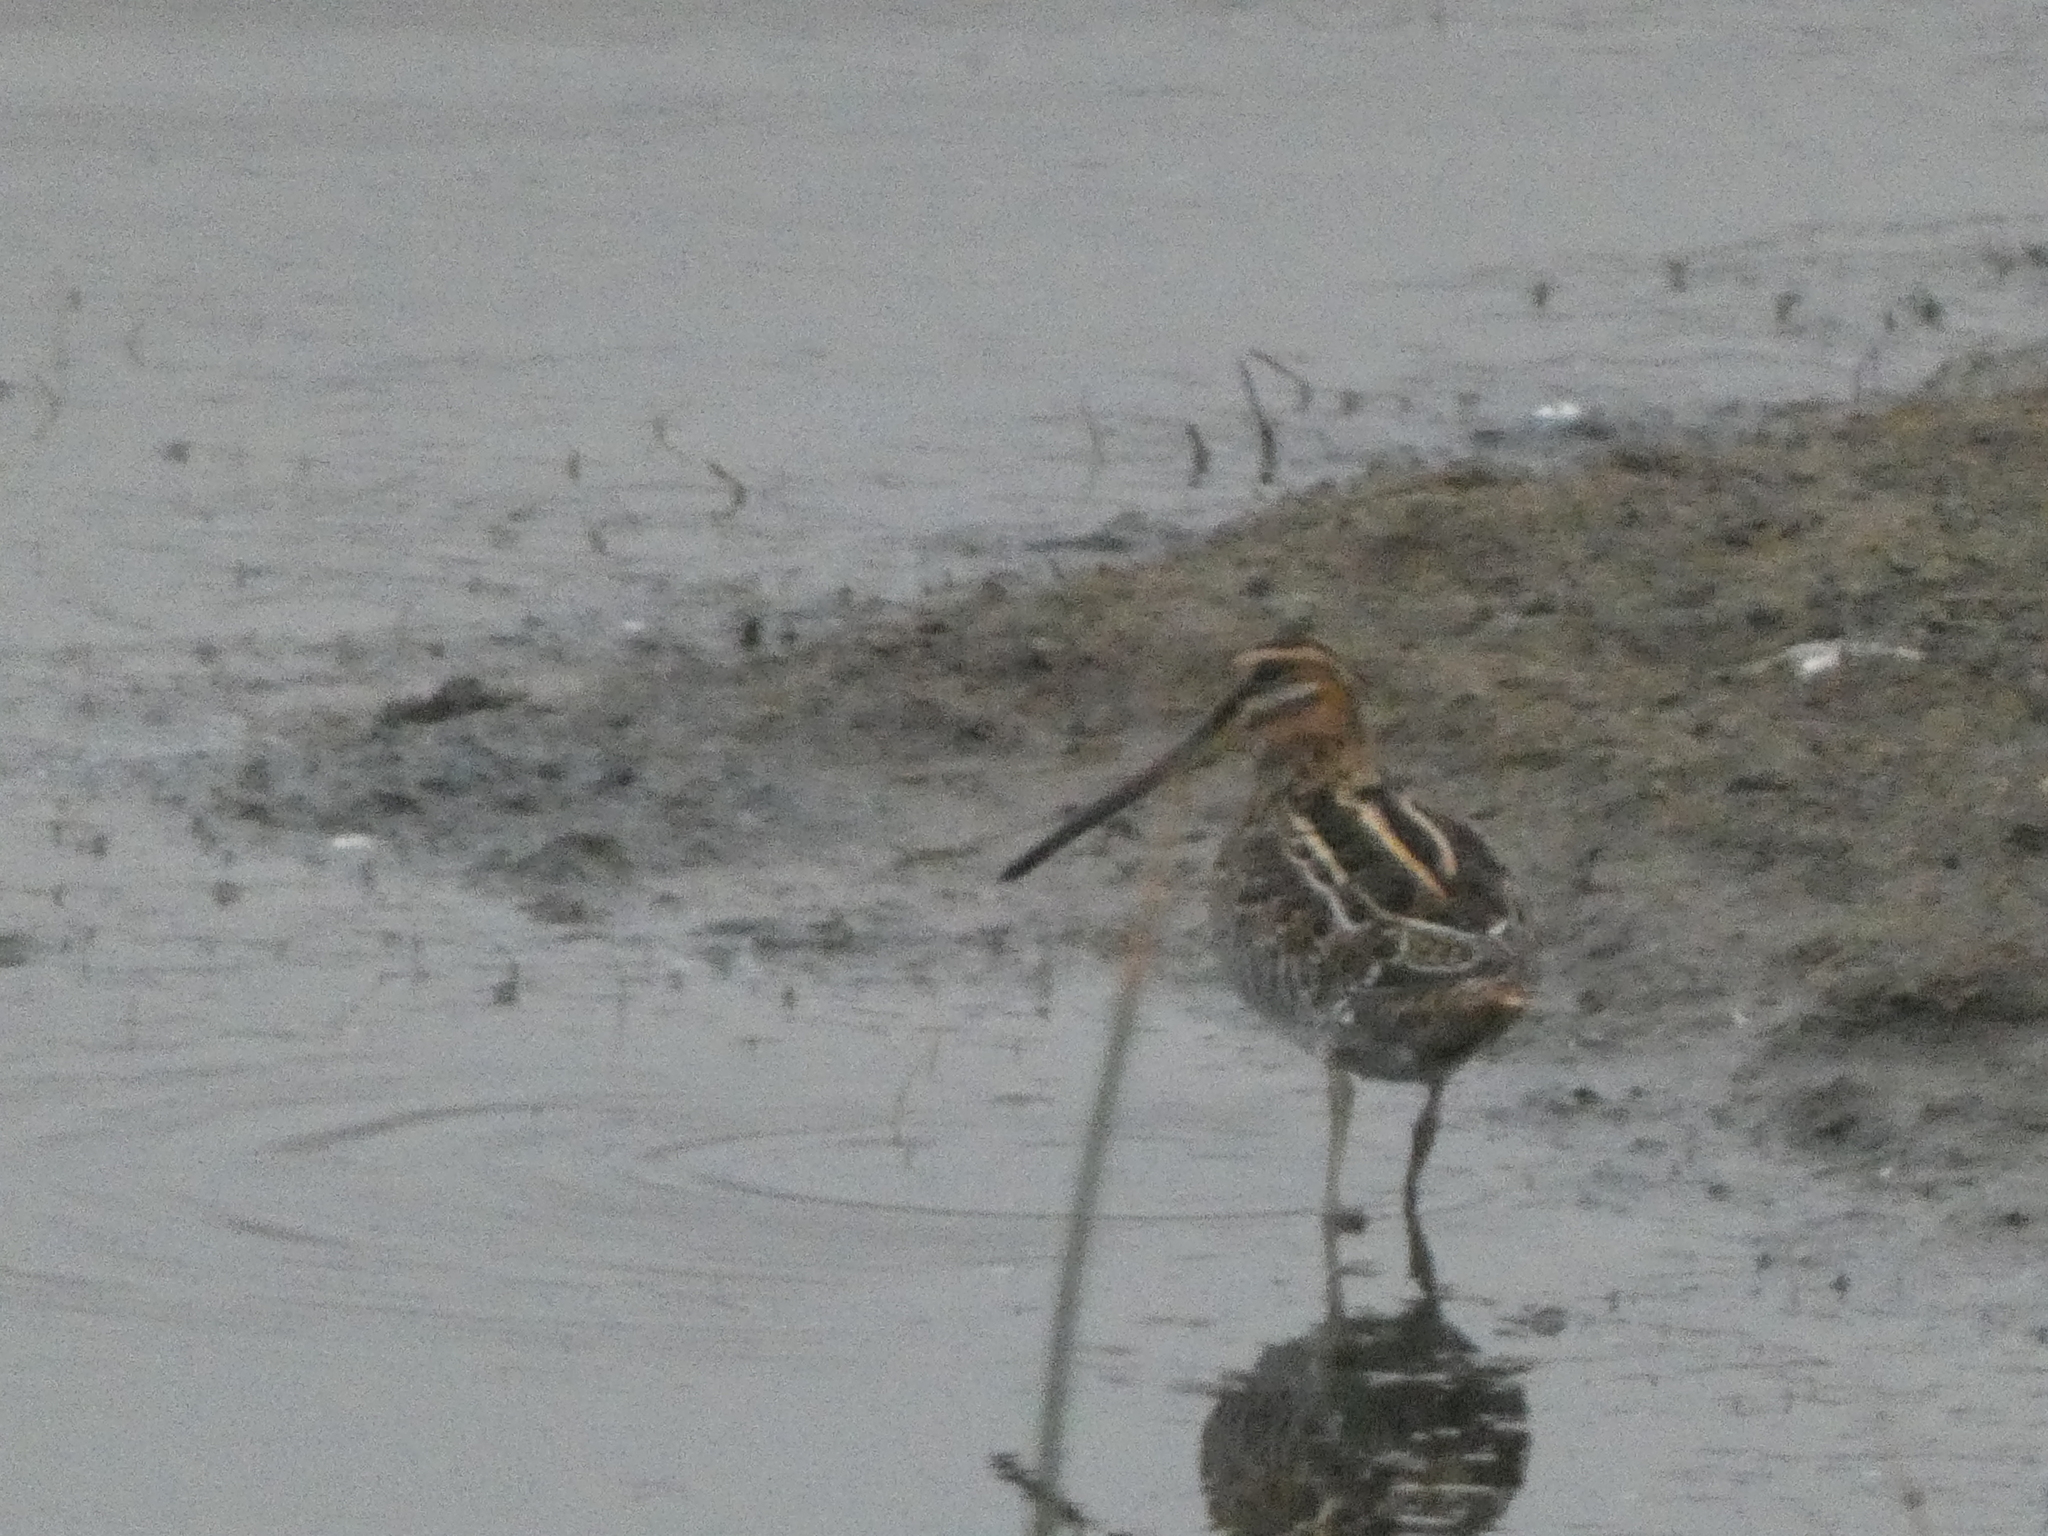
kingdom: Animalia
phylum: Chordata
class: Aves
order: Charadriiformes
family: Scolopacidae
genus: Gallinago
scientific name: Gallinago delicata
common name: Wilson's snipe
